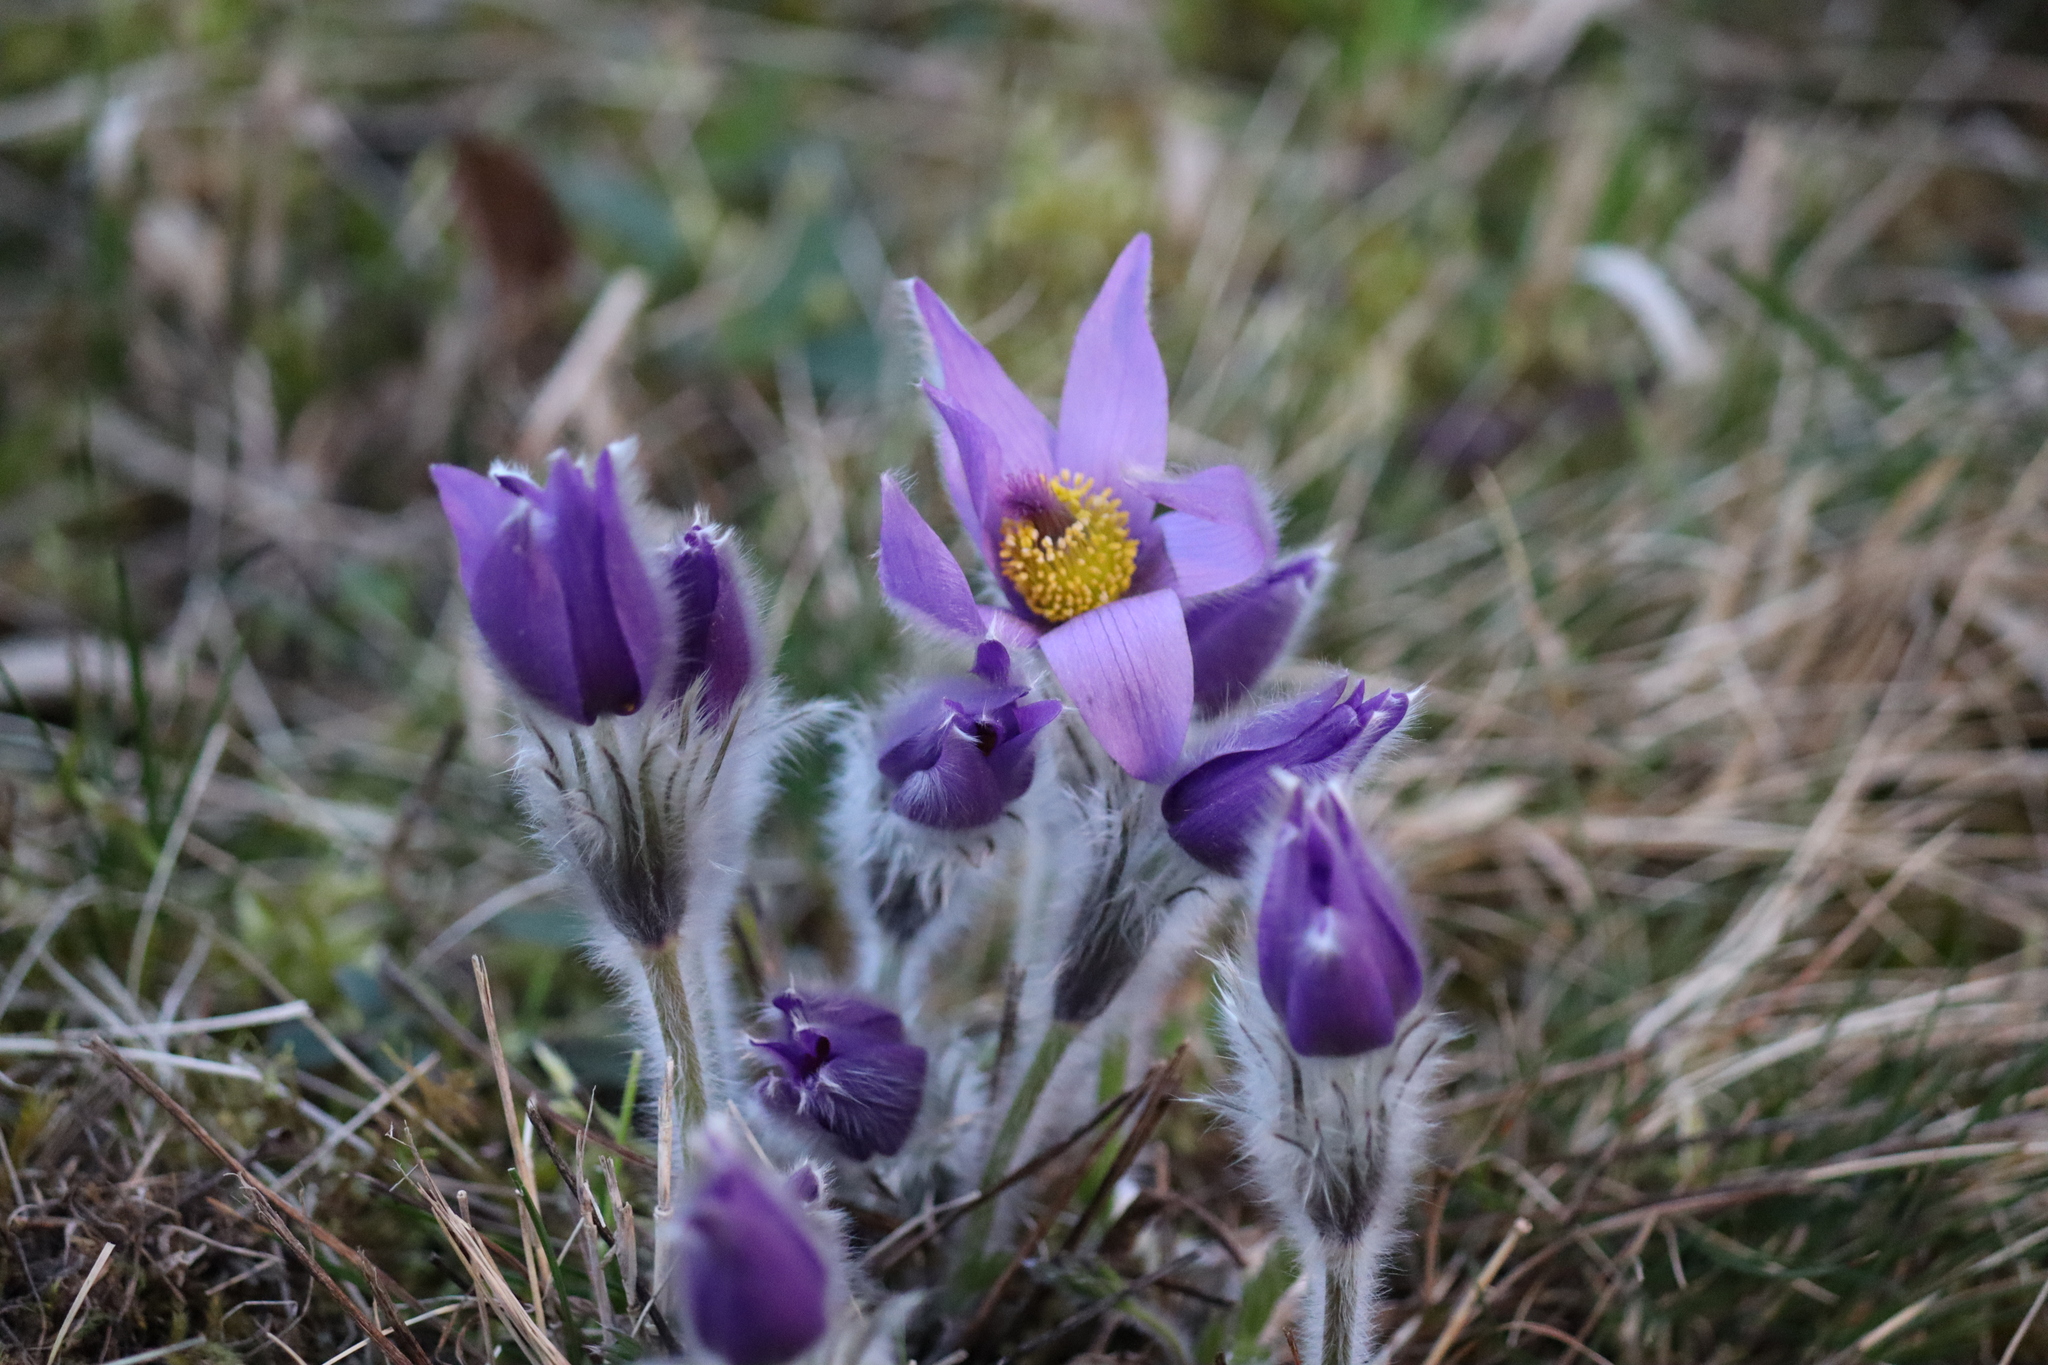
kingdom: Plantae
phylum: Tracheophyta
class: Magnoliopsida
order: Ranunculales
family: Ranunculaceae
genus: Pulsatilla
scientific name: Pulsatilla grandis
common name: Greater pasque flower
